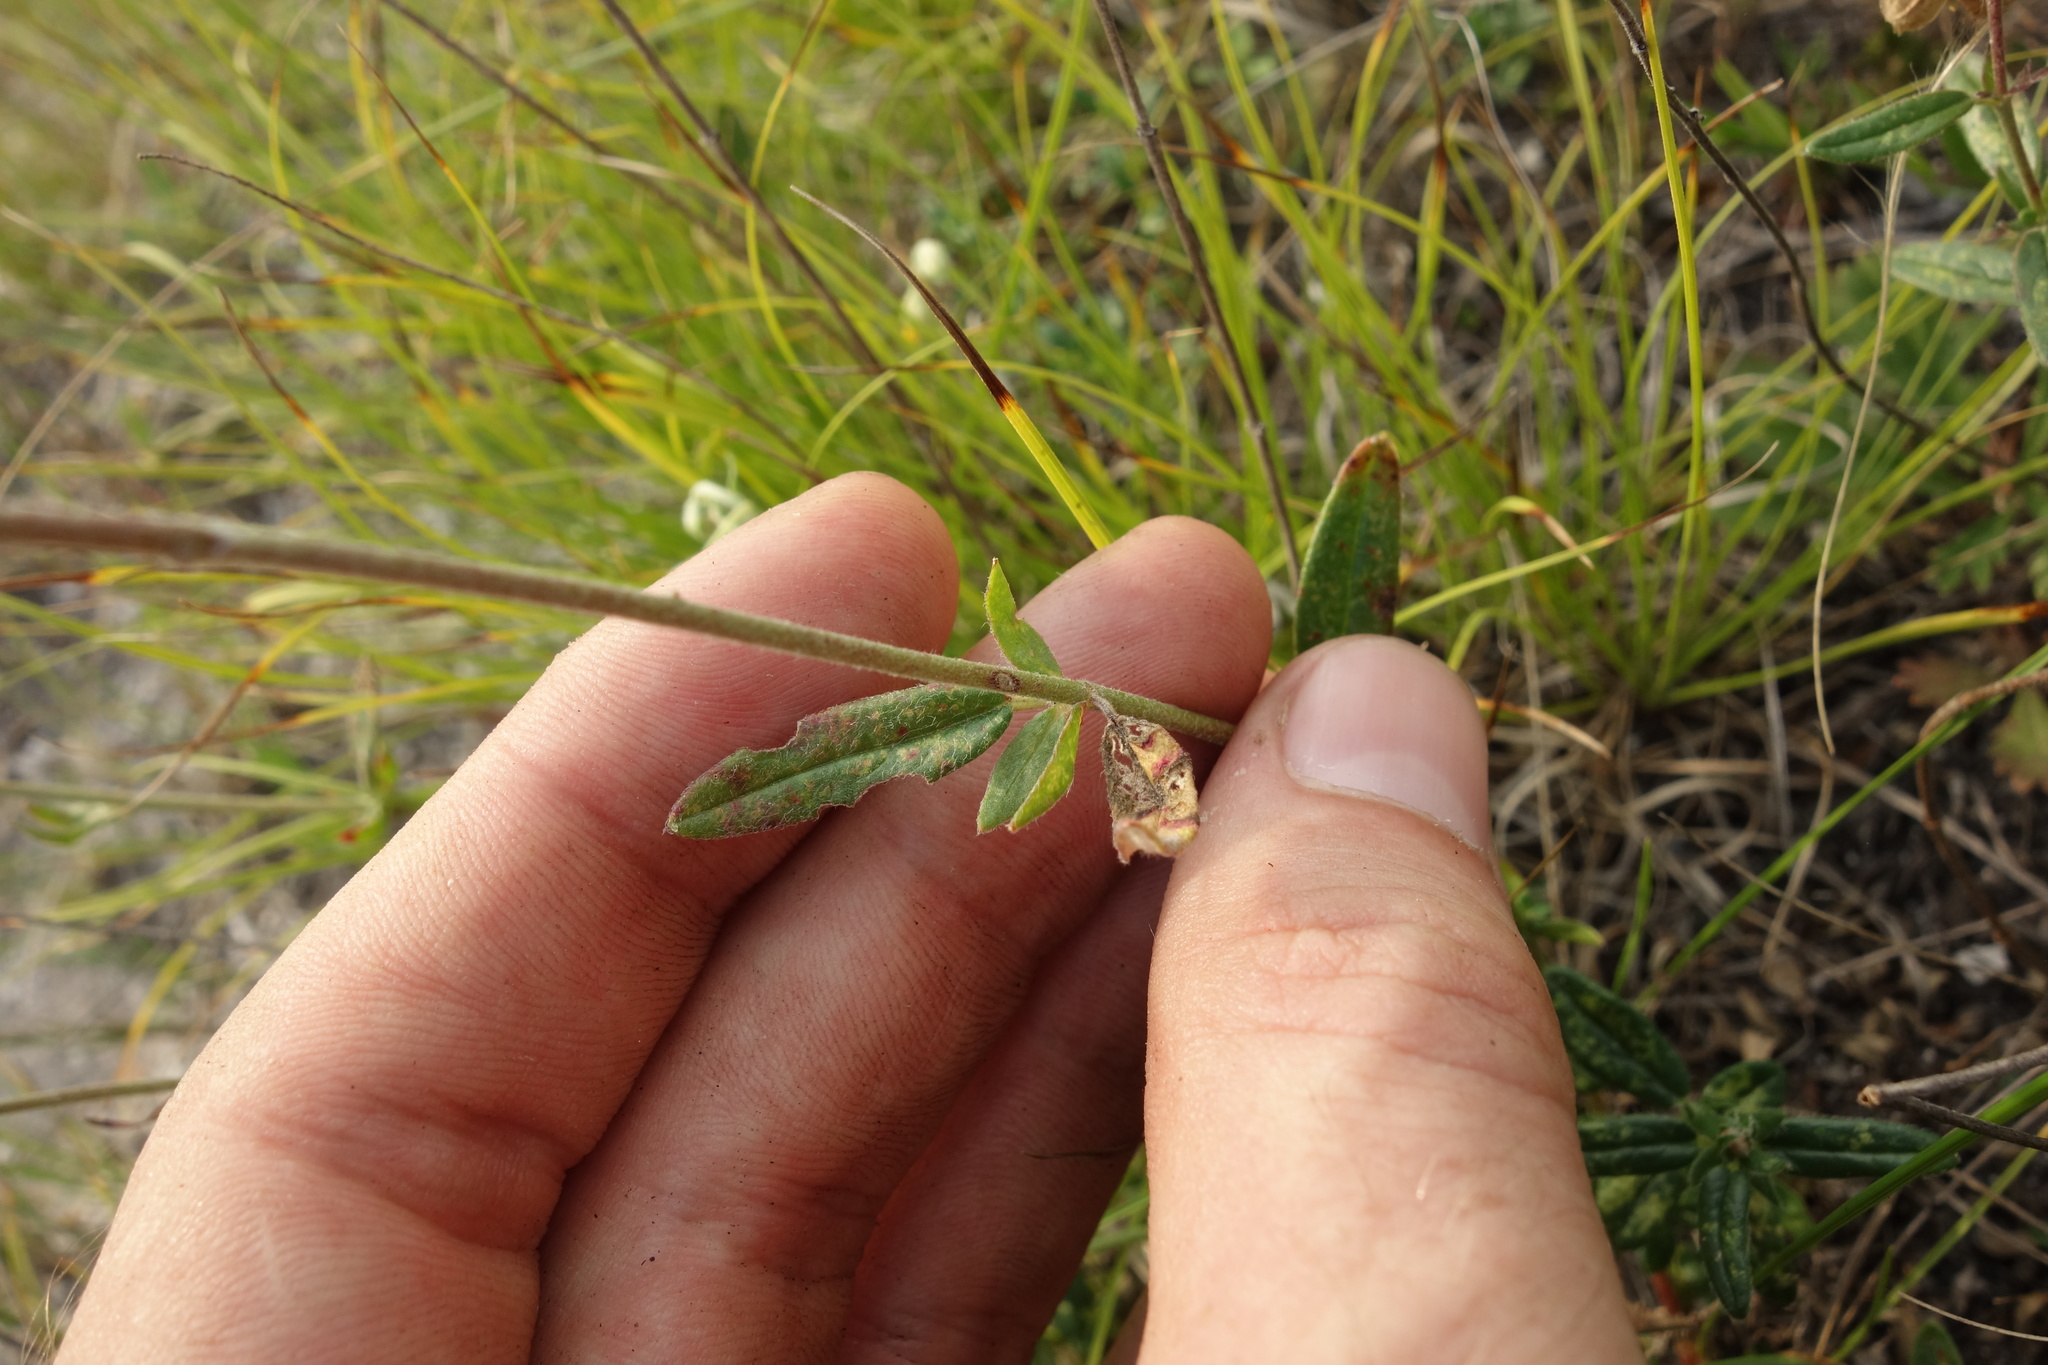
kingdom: Plantae
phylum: Tracheophyta
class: Magnoliopsida
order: Malvales
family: Cistaceae
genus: Helianthemum
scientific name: Helianthemum nummularium
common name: Common rock-rose
